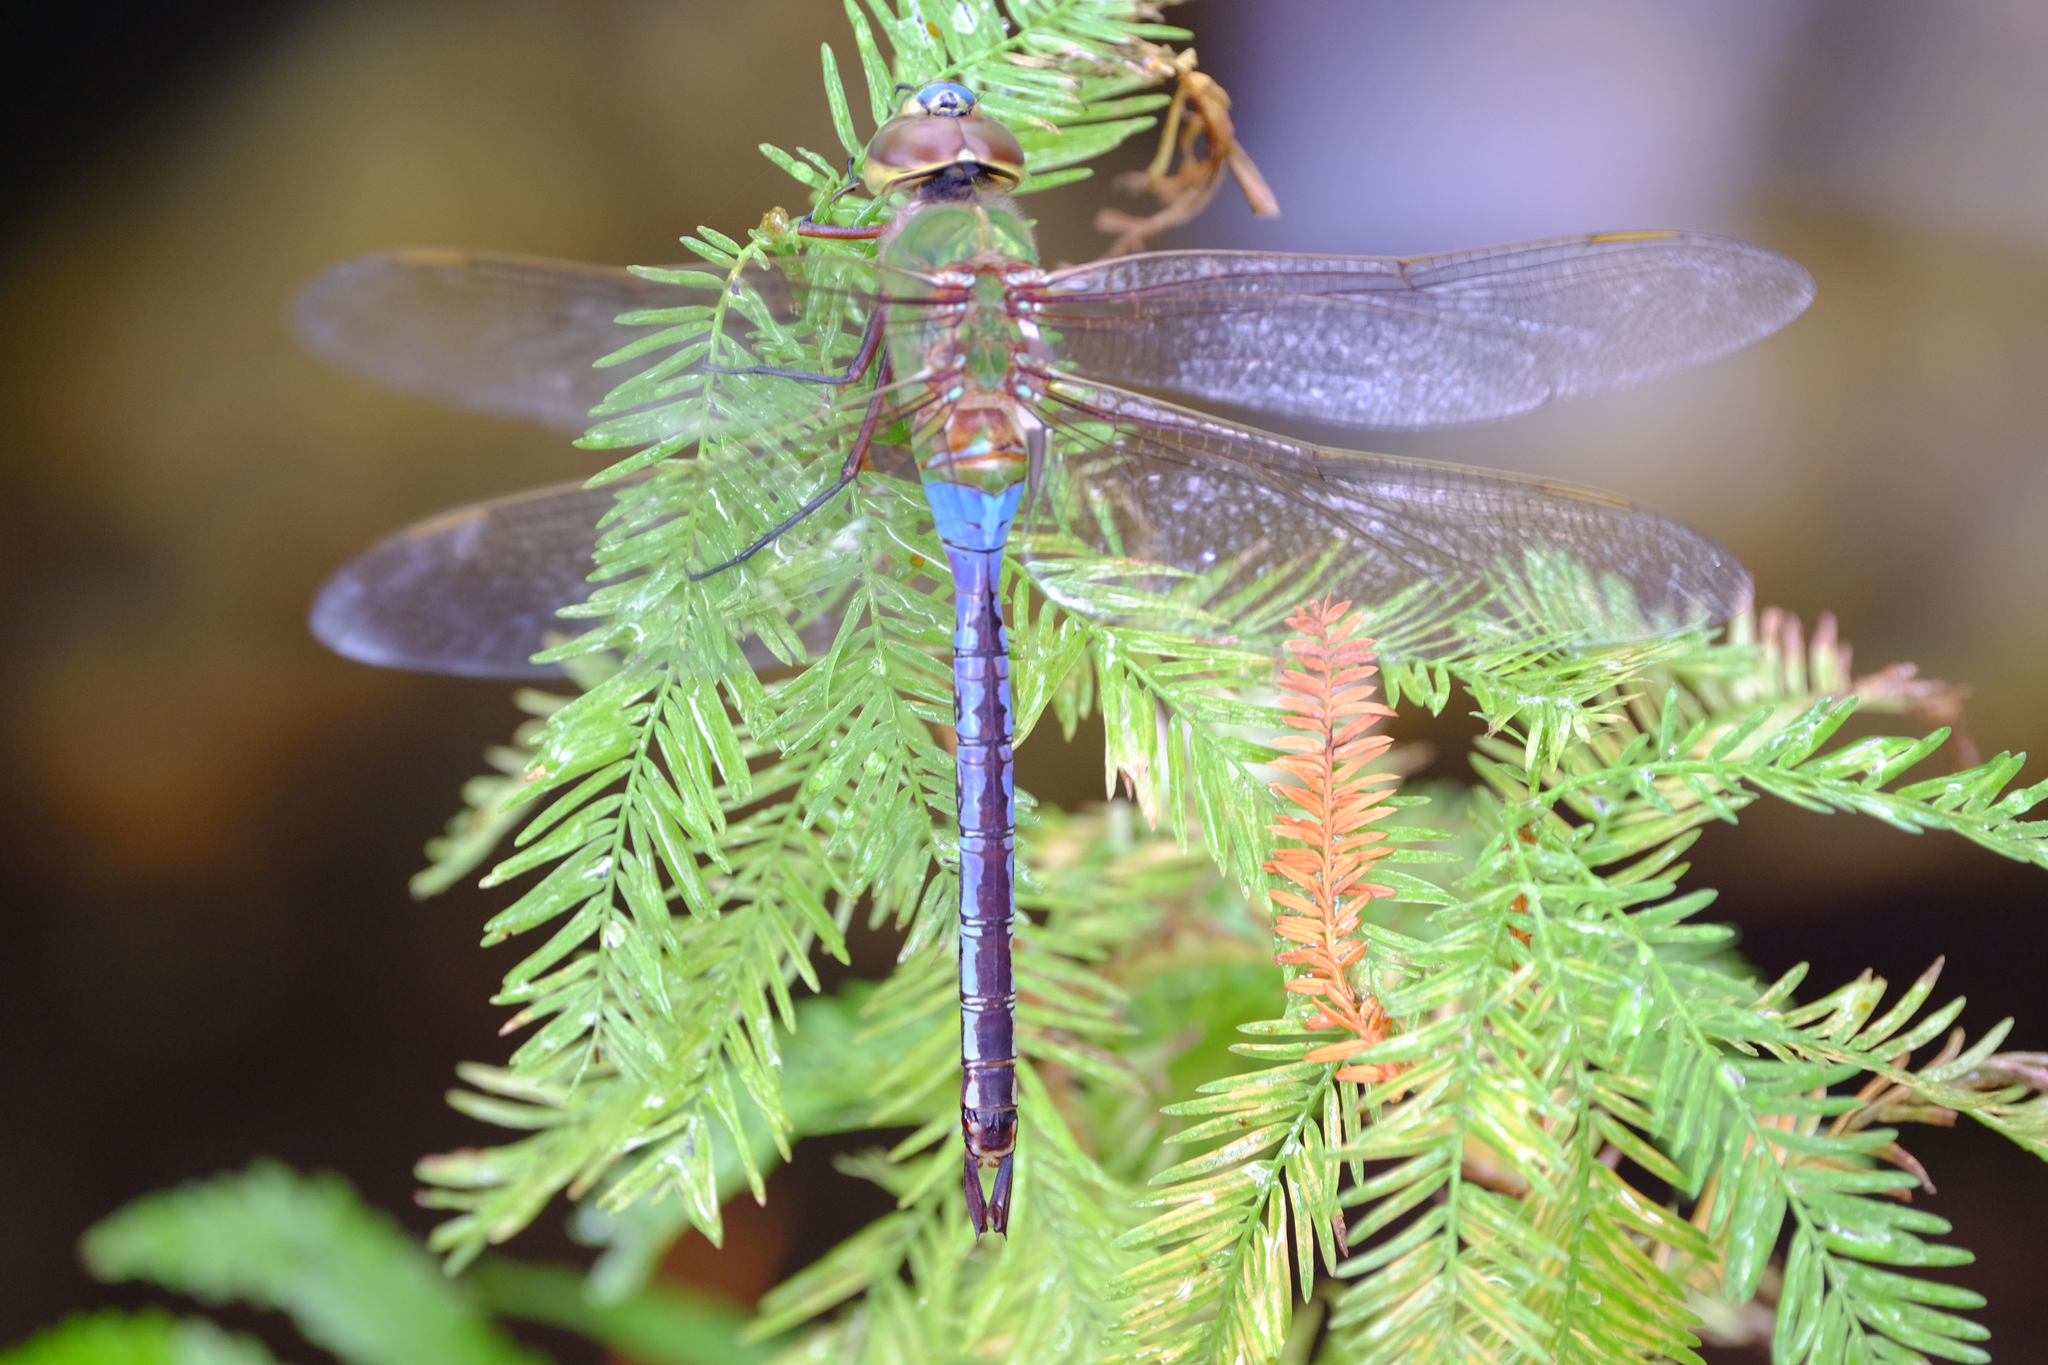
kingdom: Animalia
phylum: Arthropoda
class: Insecta
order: Odonata
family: Aeshnidae
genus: Anax
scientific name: Anax junius
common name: Common green darner
